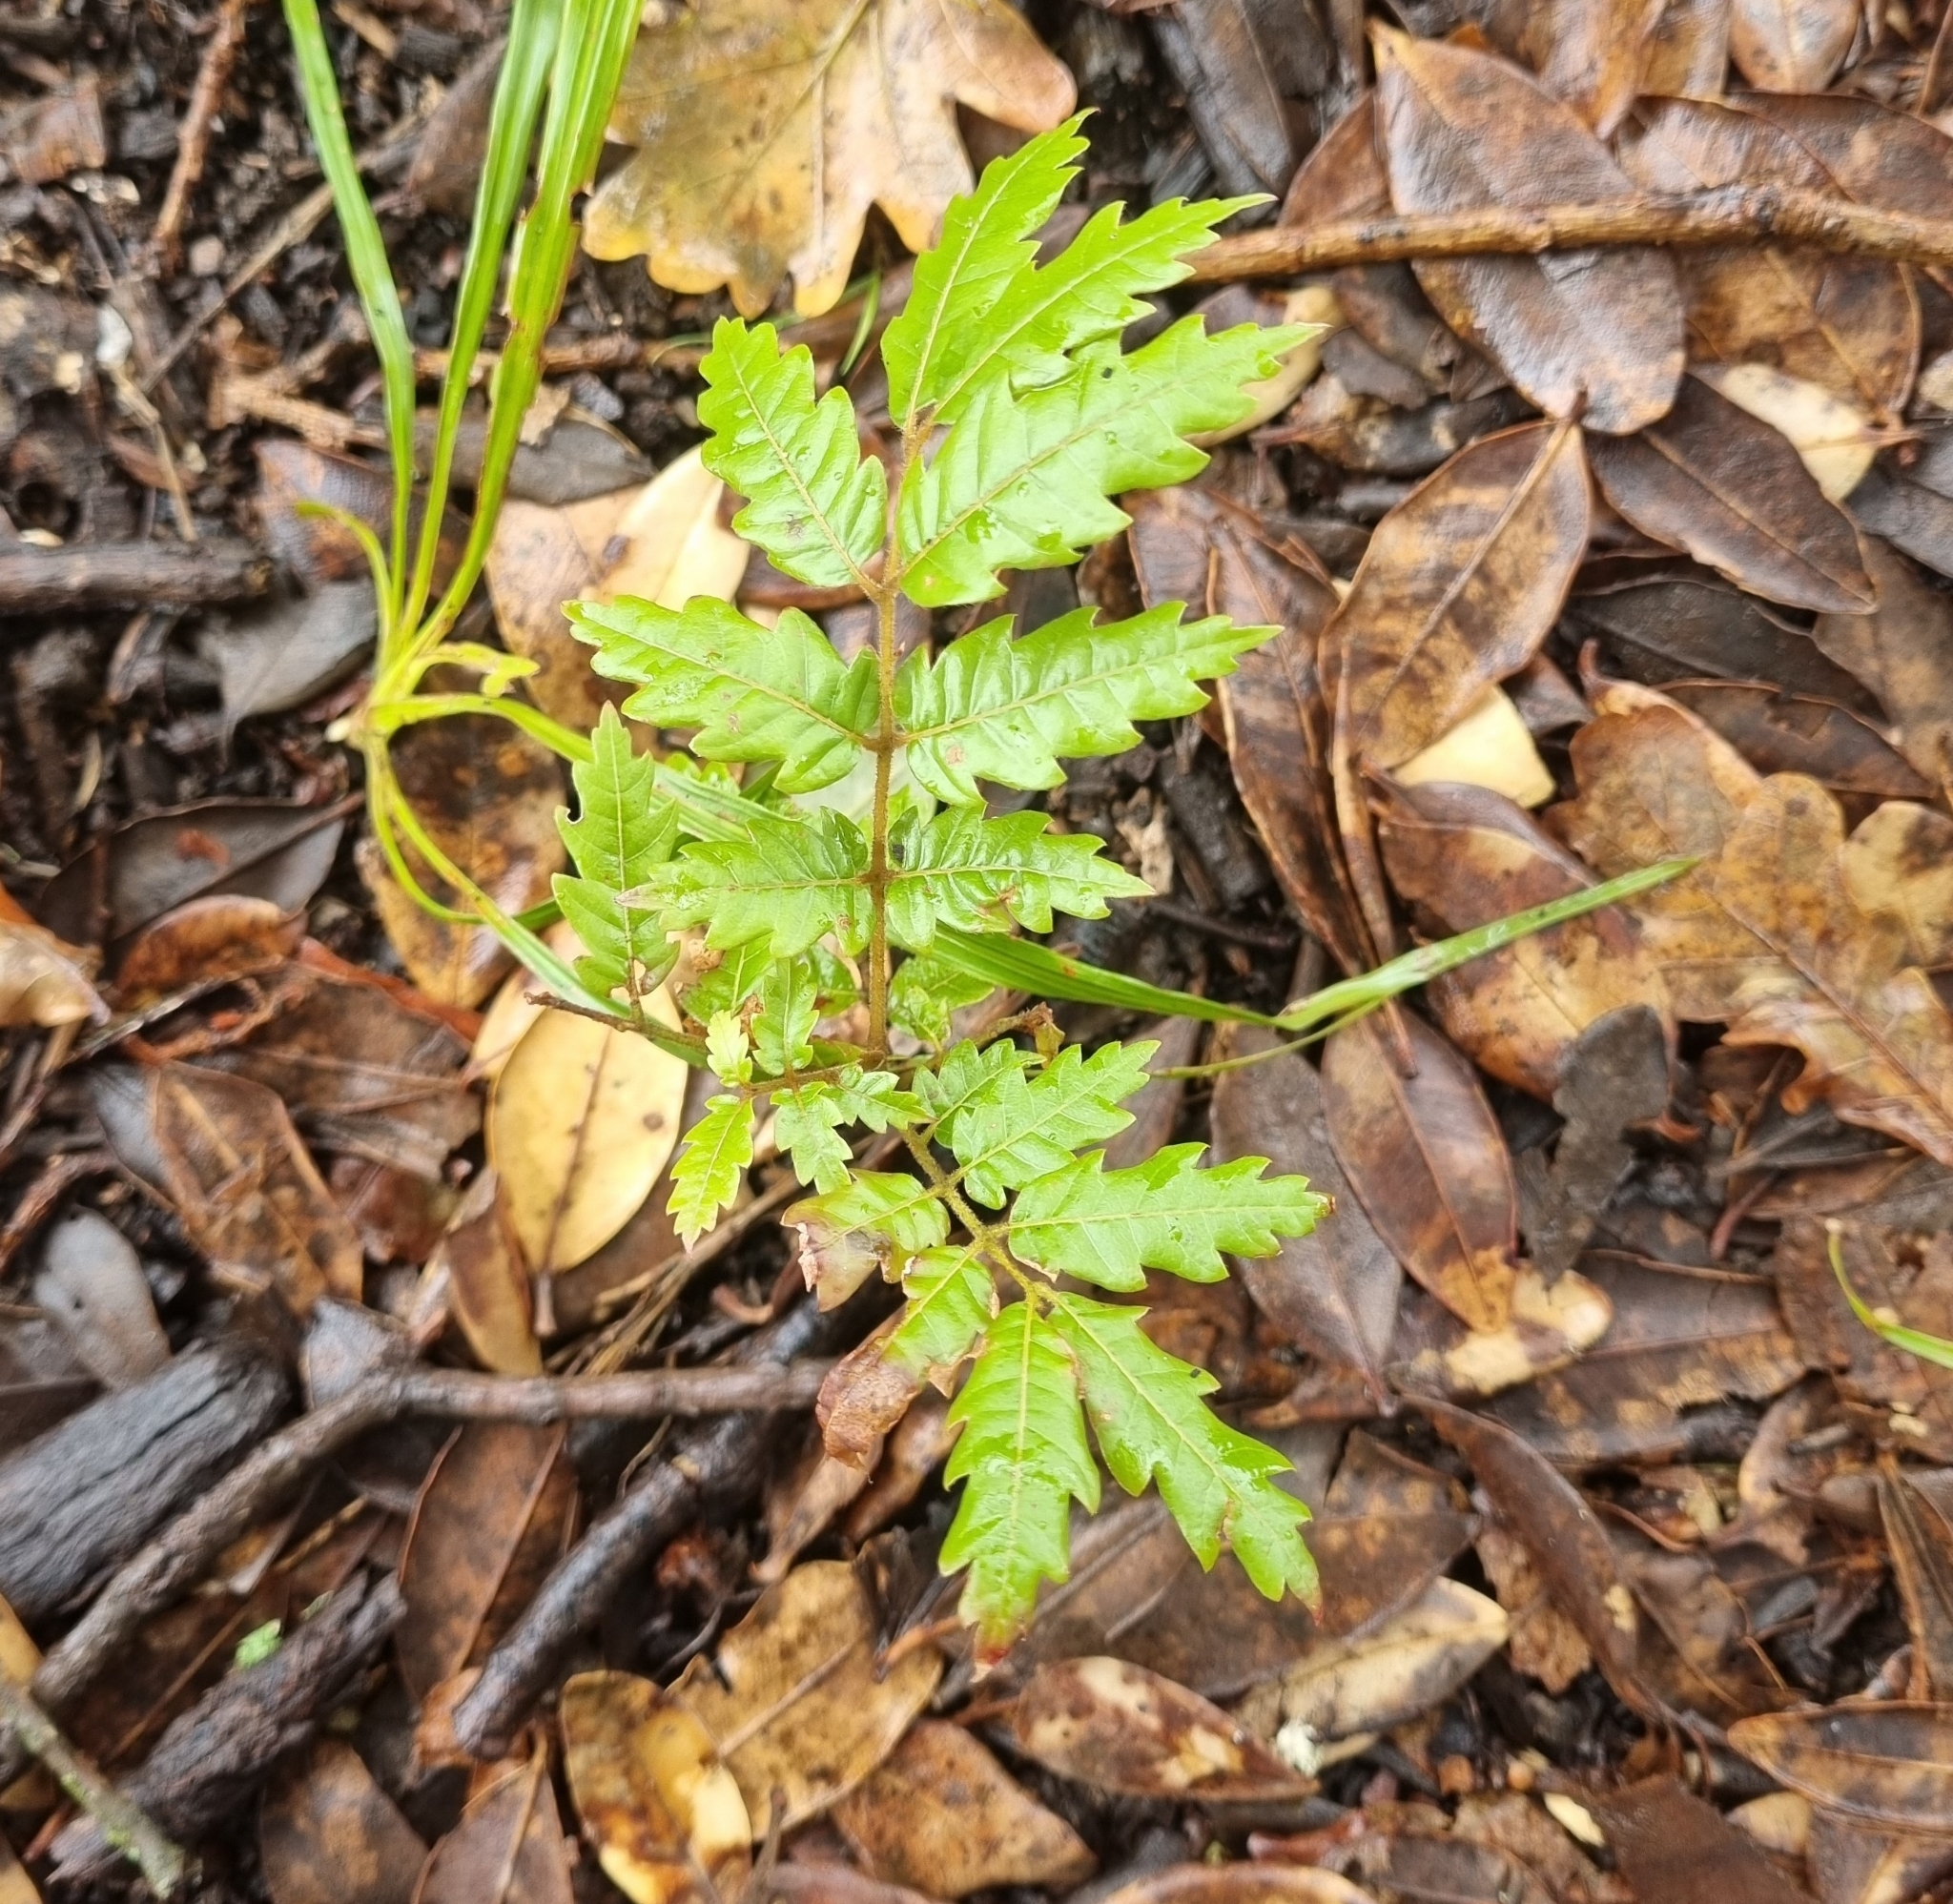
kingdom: Plantae
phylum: Tracheophyta
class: Magnoliopsida
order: Sapindales
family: Sapindaceae
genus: Alectryon
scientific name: Alectryon excelsus
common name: Three kings titoki
